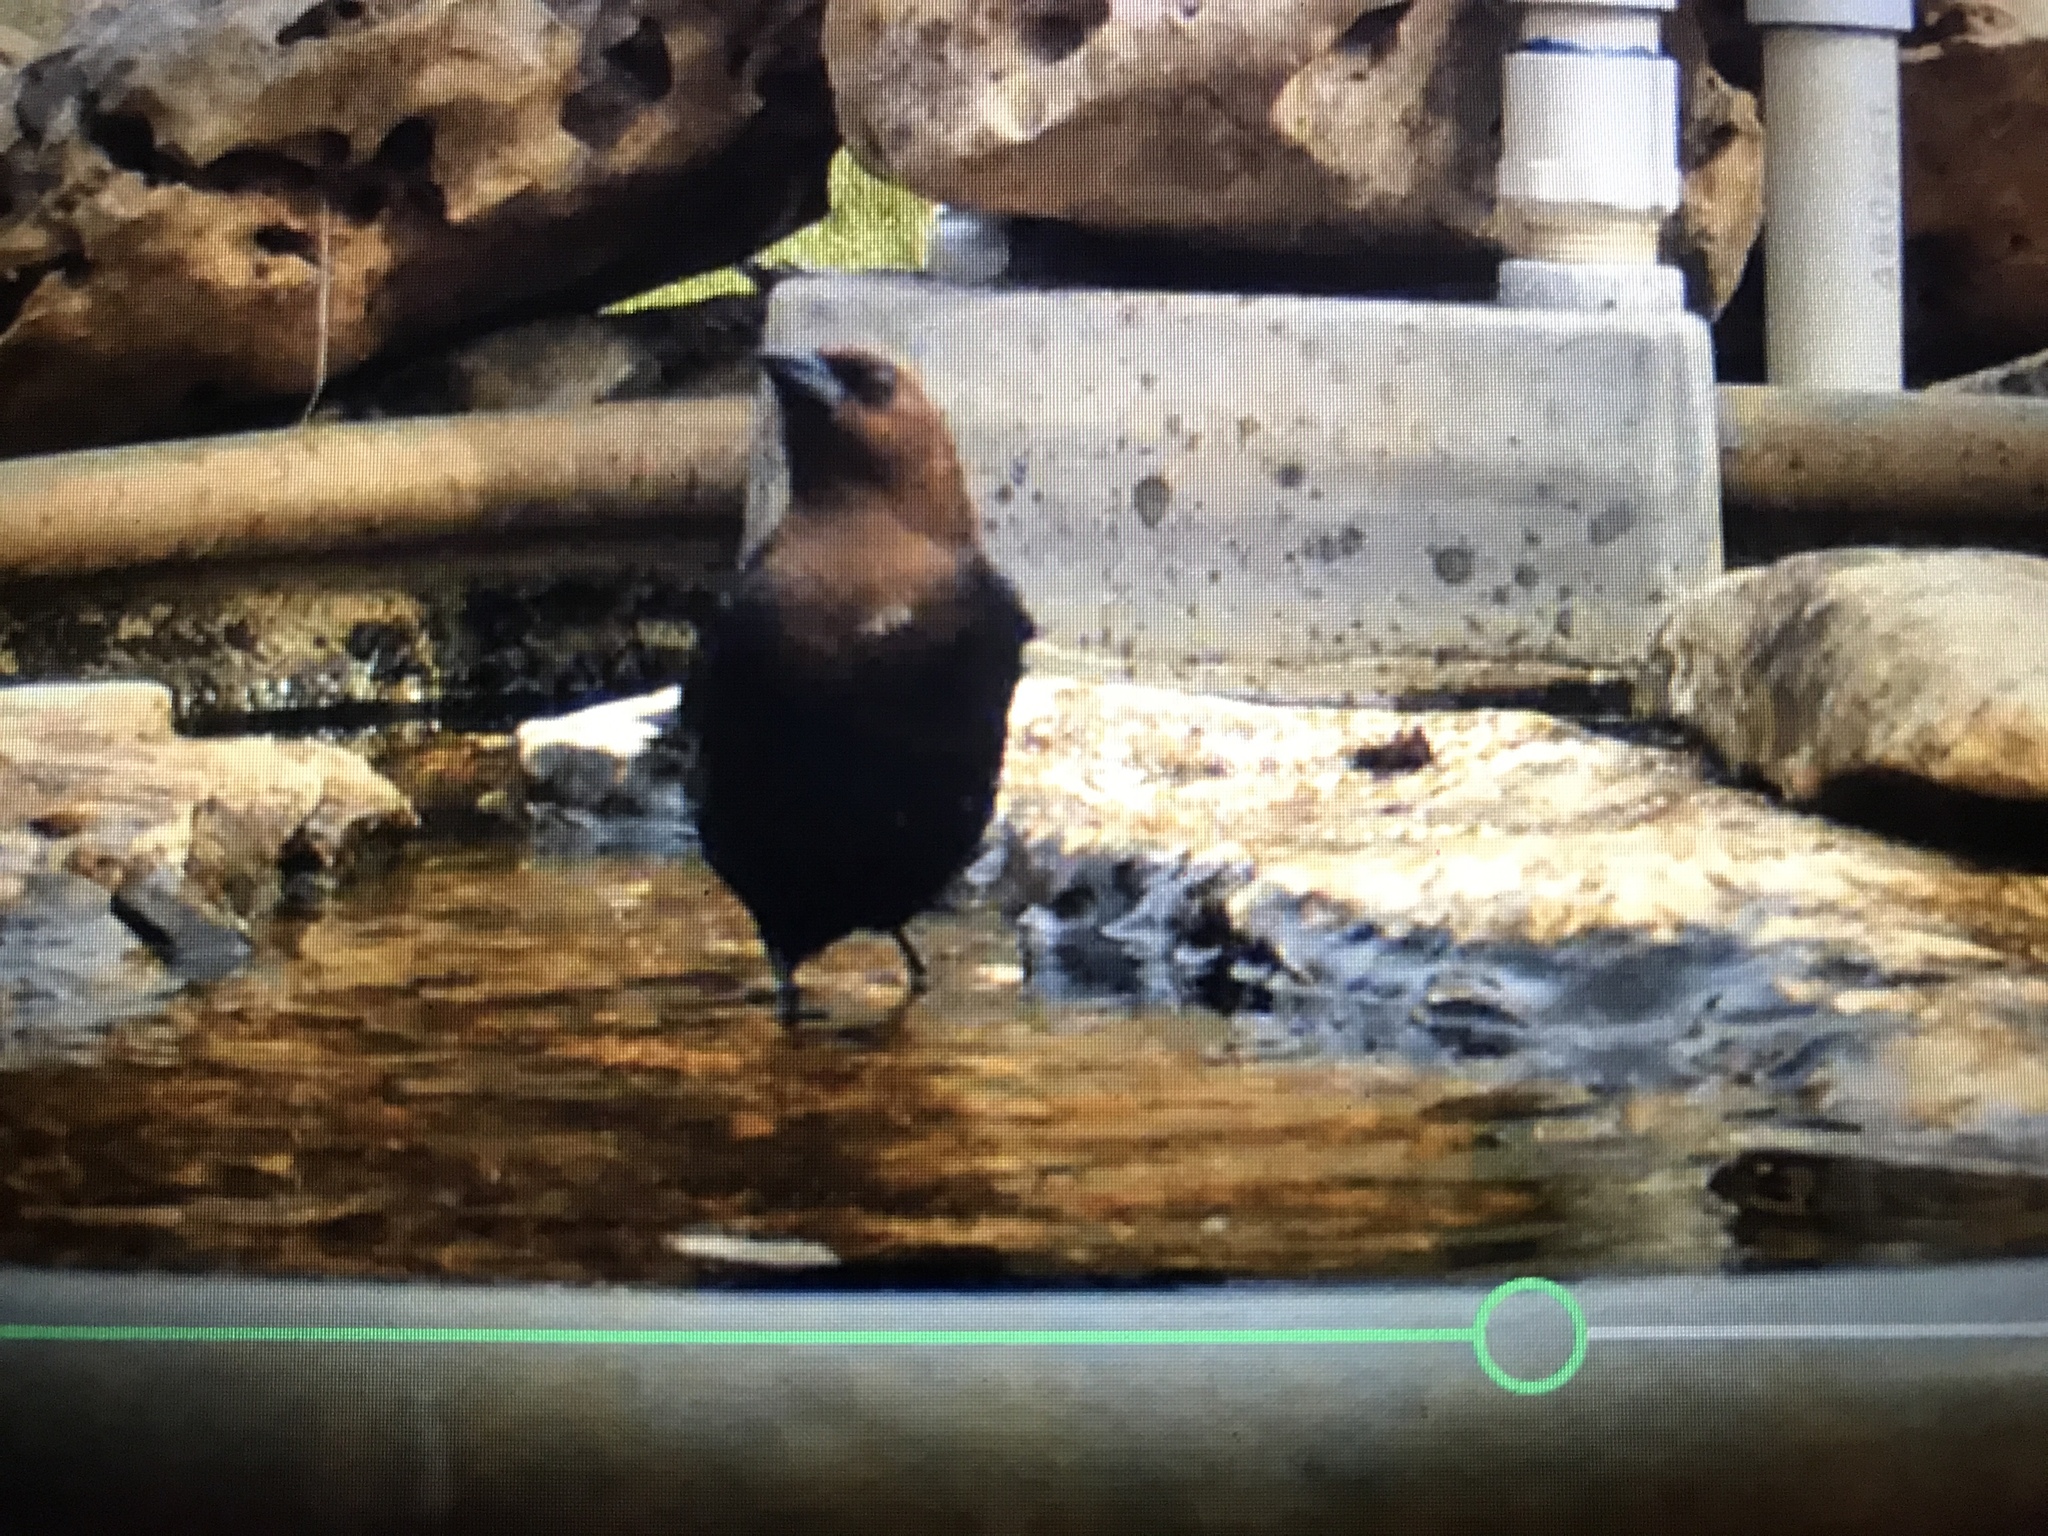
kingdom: Animalia
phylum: Chordata
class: Aves
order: Passeriformes
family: Icteridae
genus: Molothrus
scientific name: Molothrus ater
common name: Brown-headed cowbird
